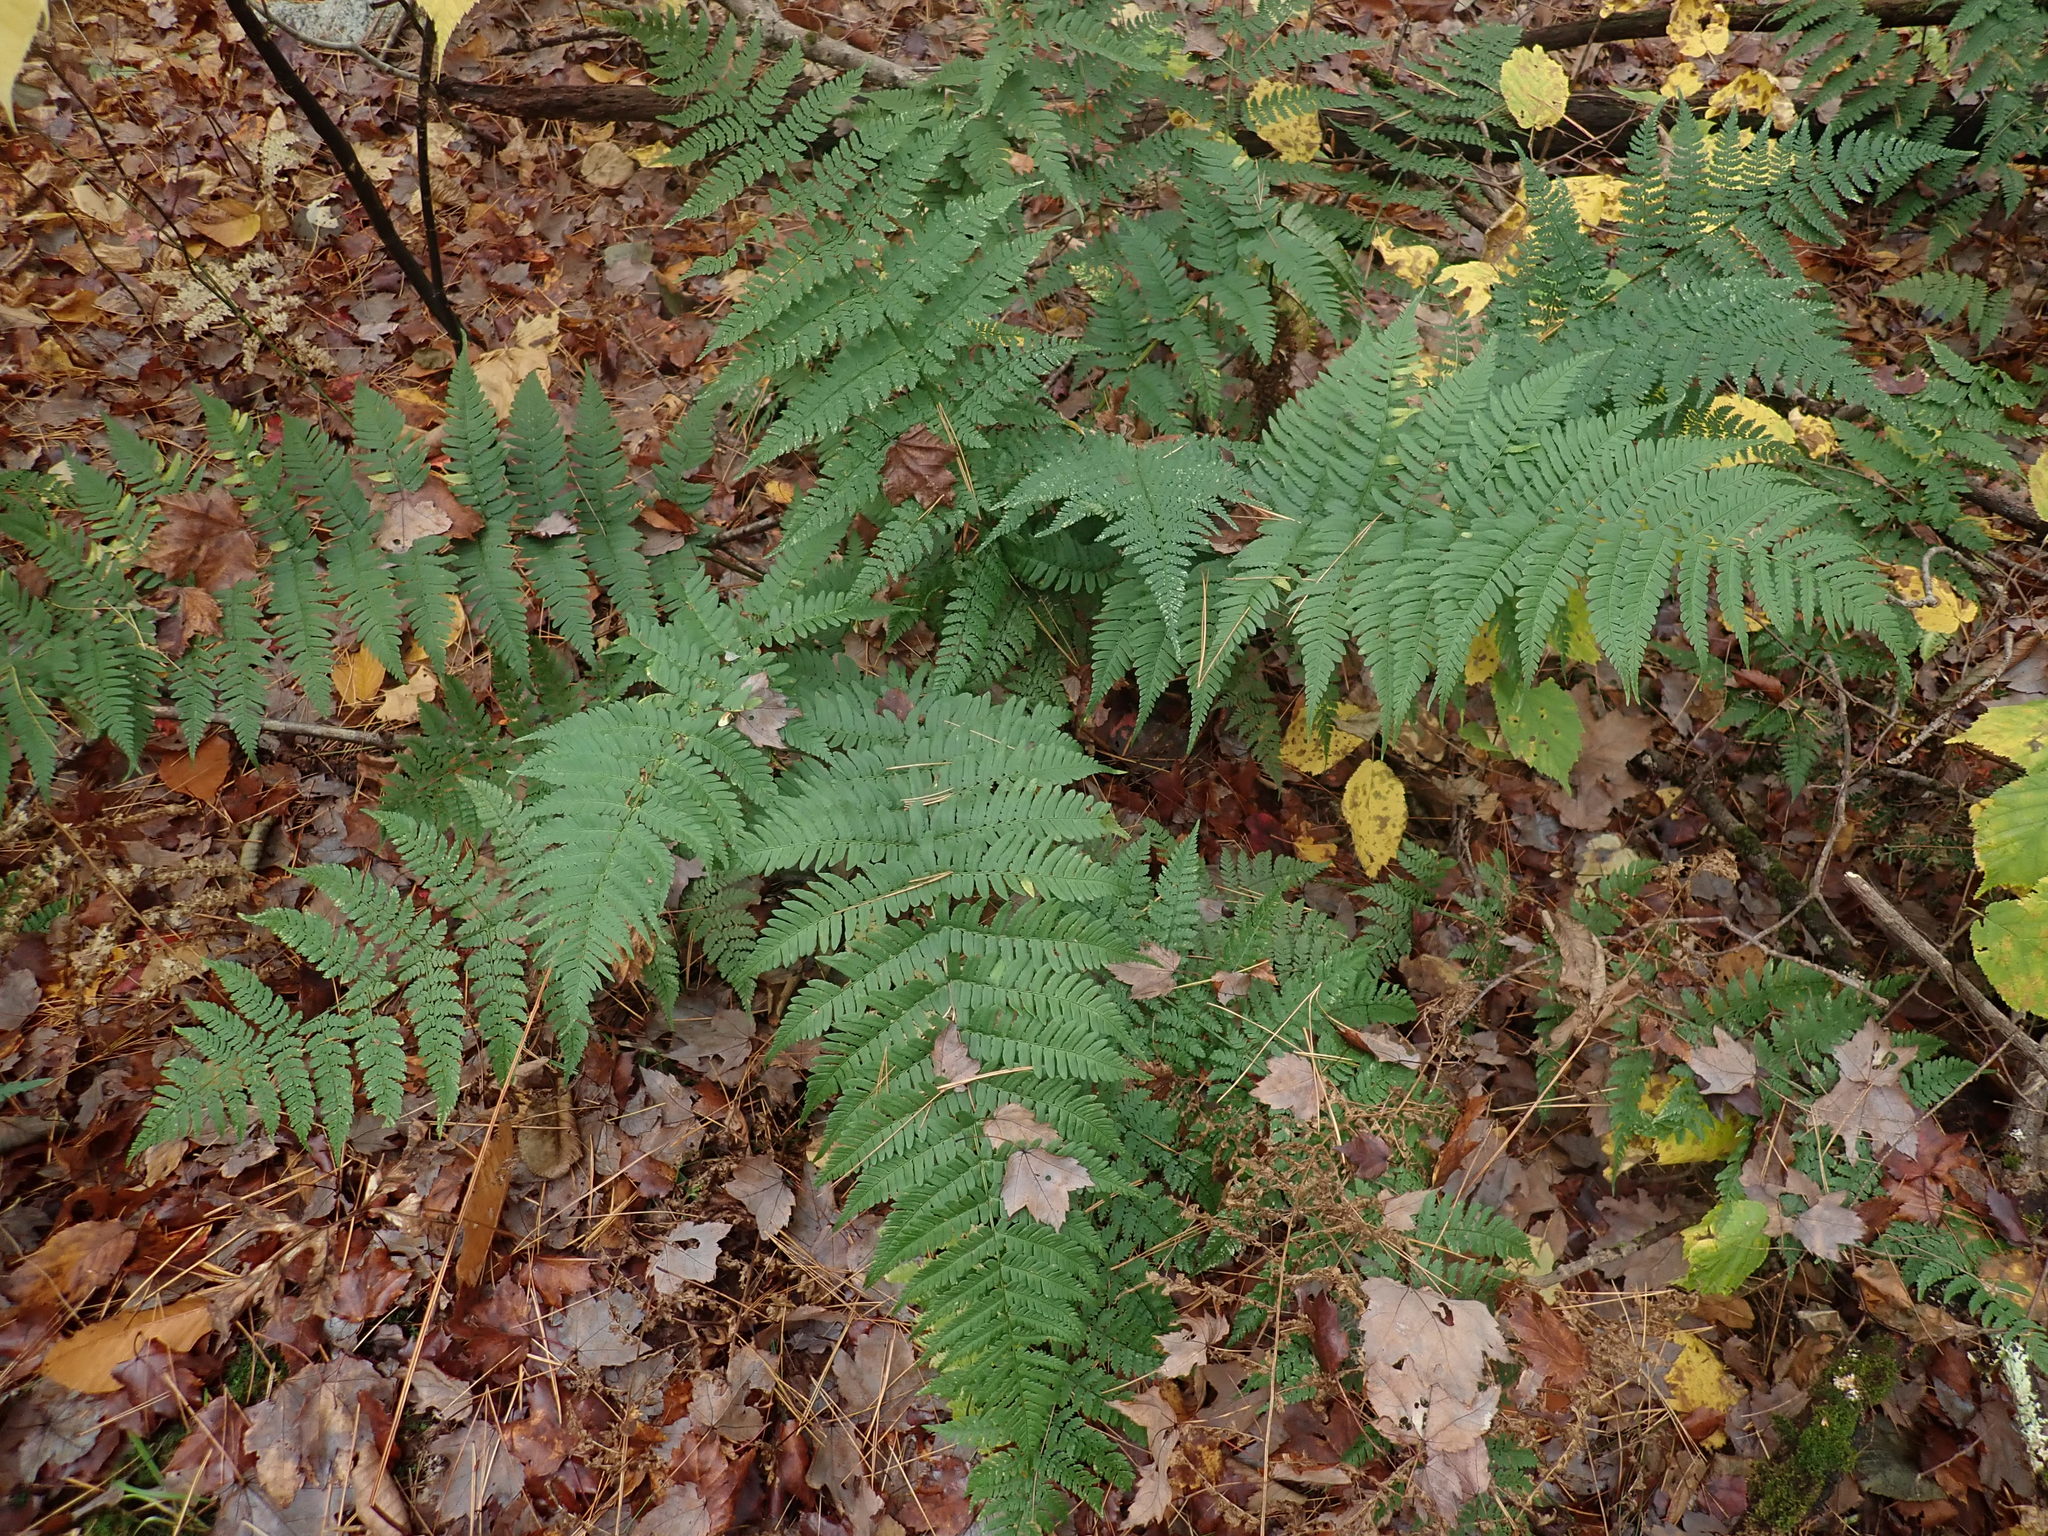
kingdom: Plantae
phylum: Tracheophyta
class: Polypodiopsida
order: Polypodiales
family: Dryopteridaceae
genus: Dryopteris
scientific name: Dryopteris marginalis
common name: Marginal wood fern
